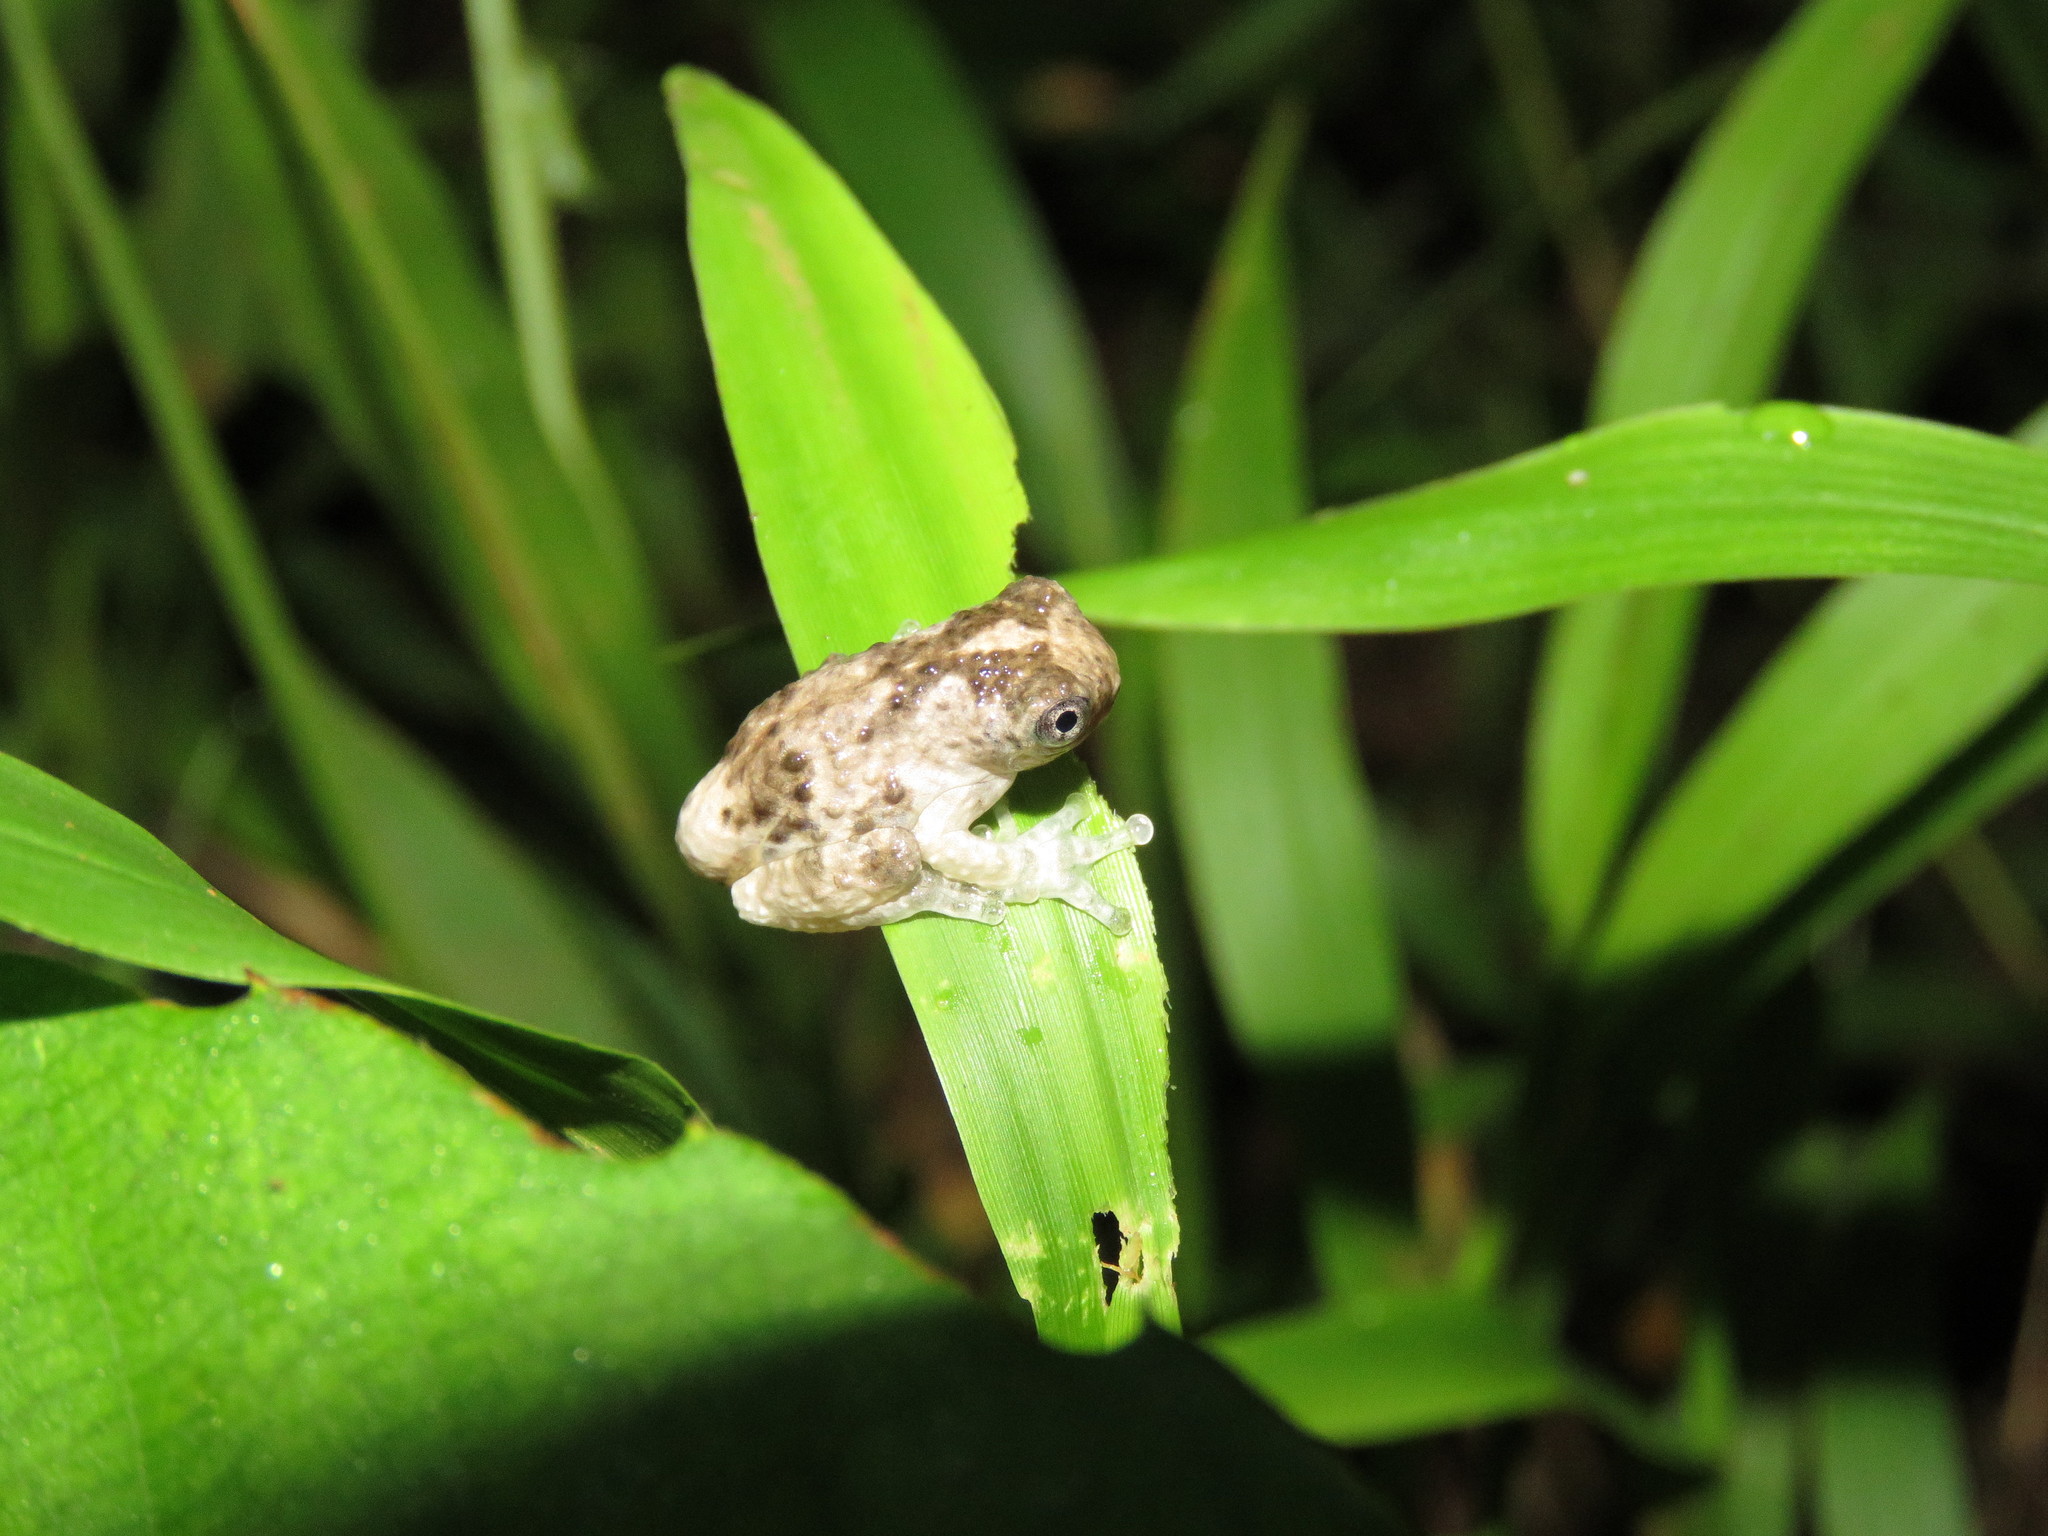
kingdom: Animalia
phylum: Chordata
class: Amphibia
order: Anura
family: Hylidae
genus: Dendropsophus
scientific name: Dendropsophus acreanus
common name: Acre treefrog
